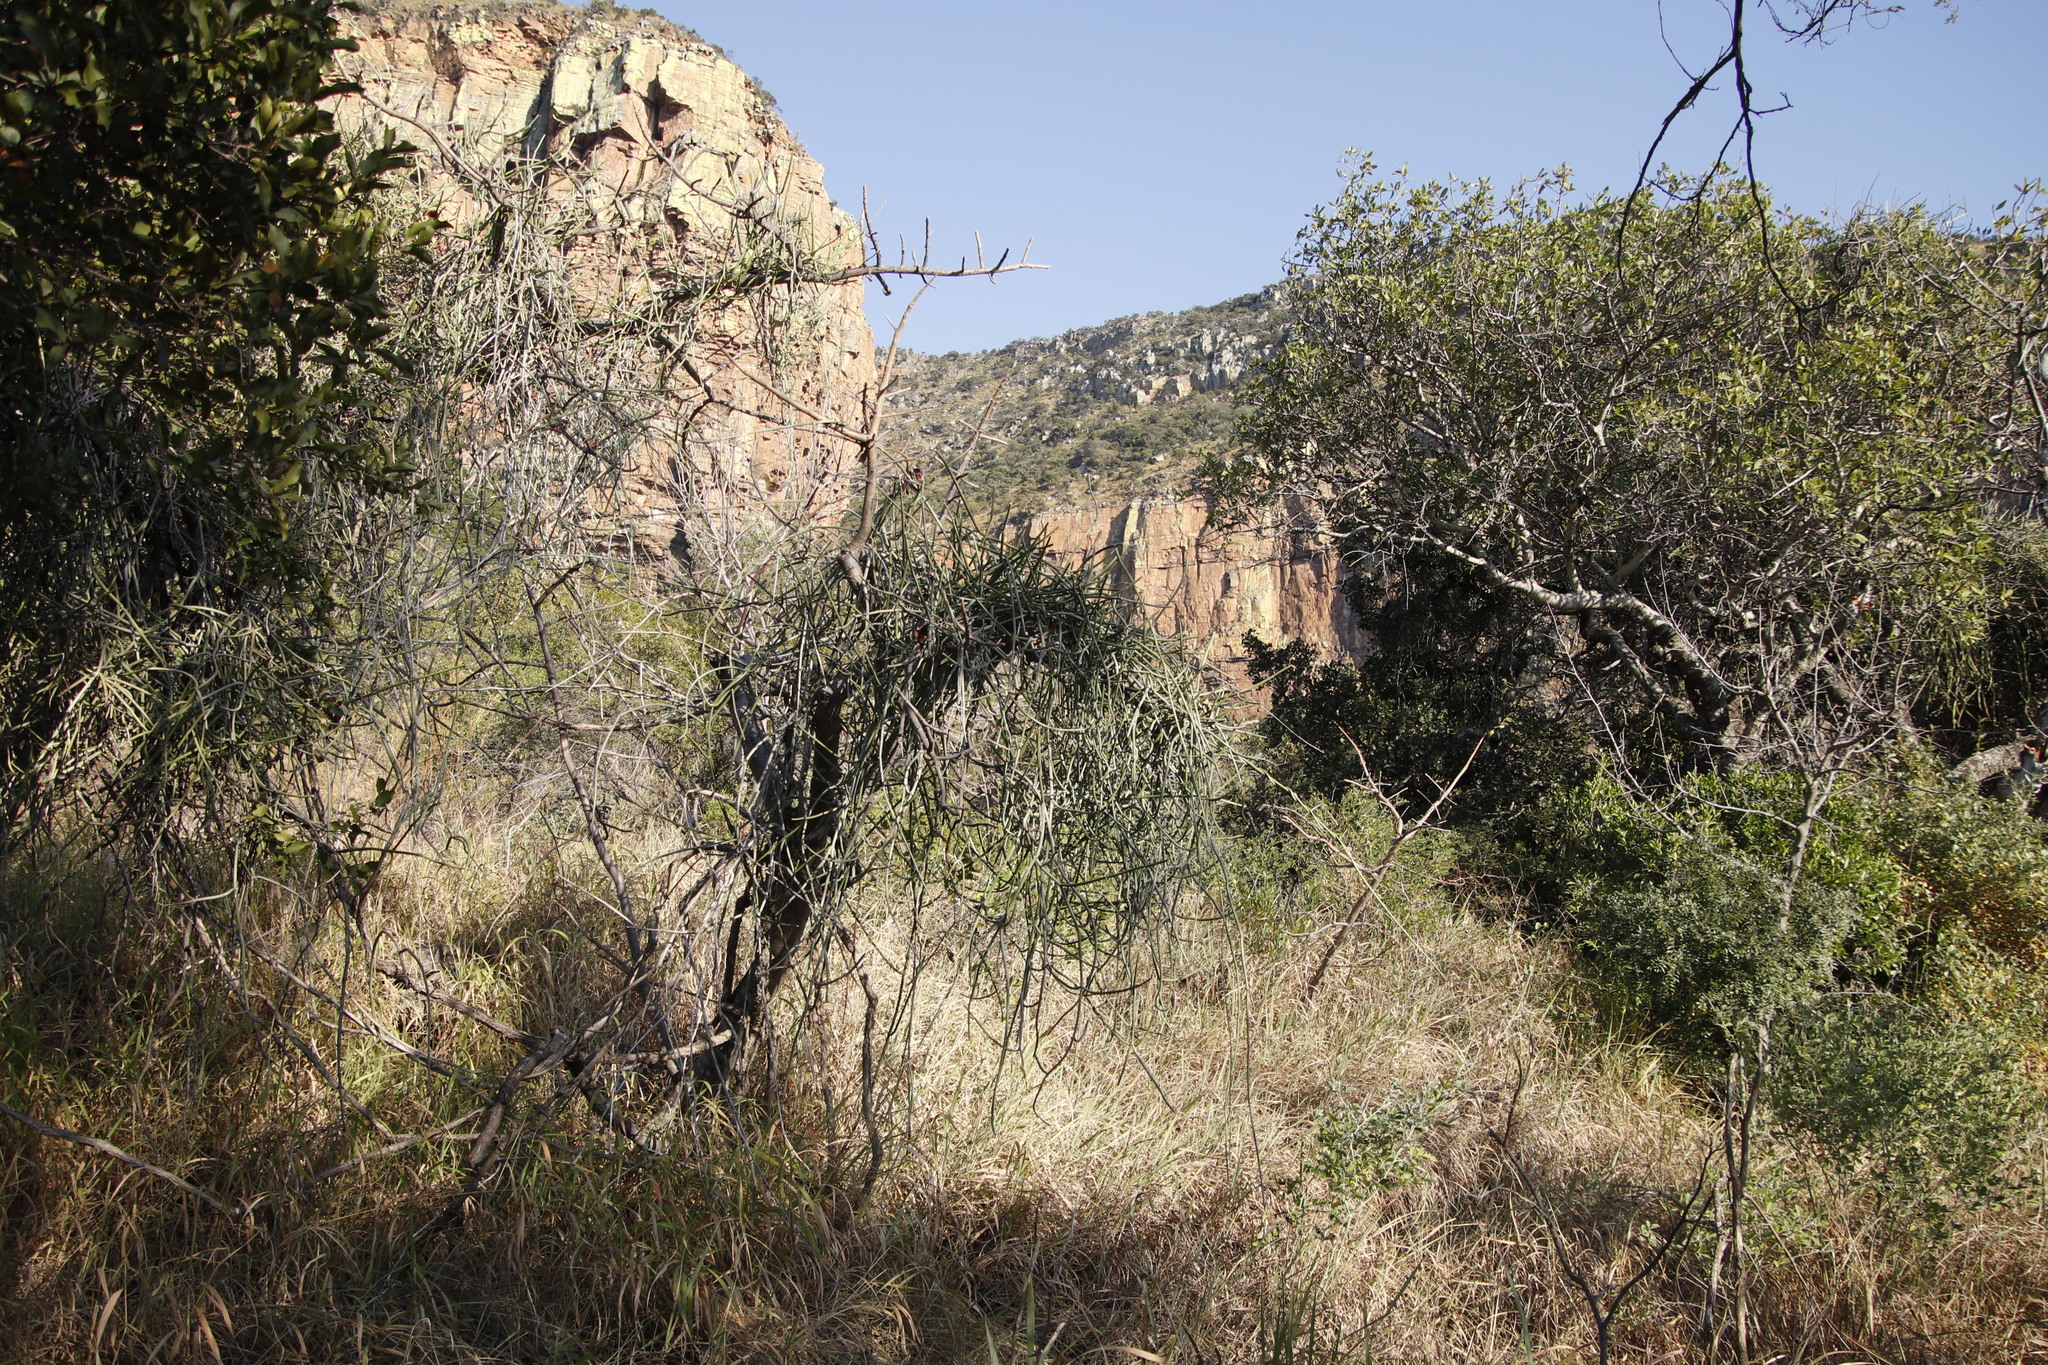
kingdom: Plantae
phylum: Tracheophyta
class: Magnoliopsida
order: Gentianales
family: Apocynaceae
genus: Cynanchum
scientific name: Cynanchum viminale
